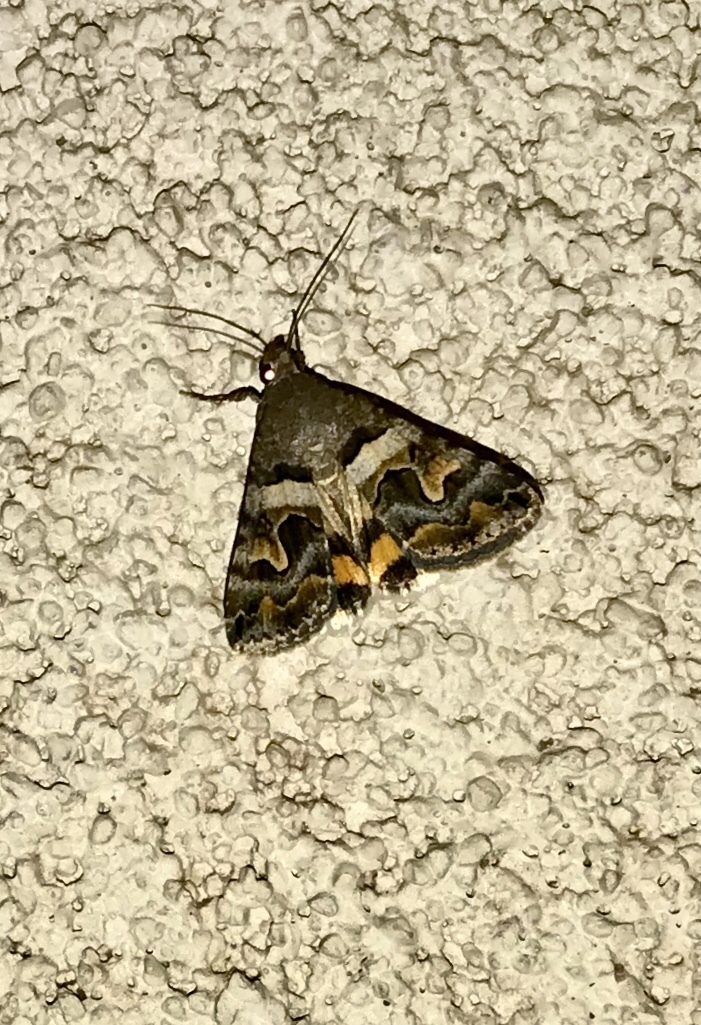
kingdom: Animalia
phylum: Arthropoda
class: Insecta
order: Lepidoptera
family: Erebidae
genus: Bulia
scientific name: Bulia deducta
